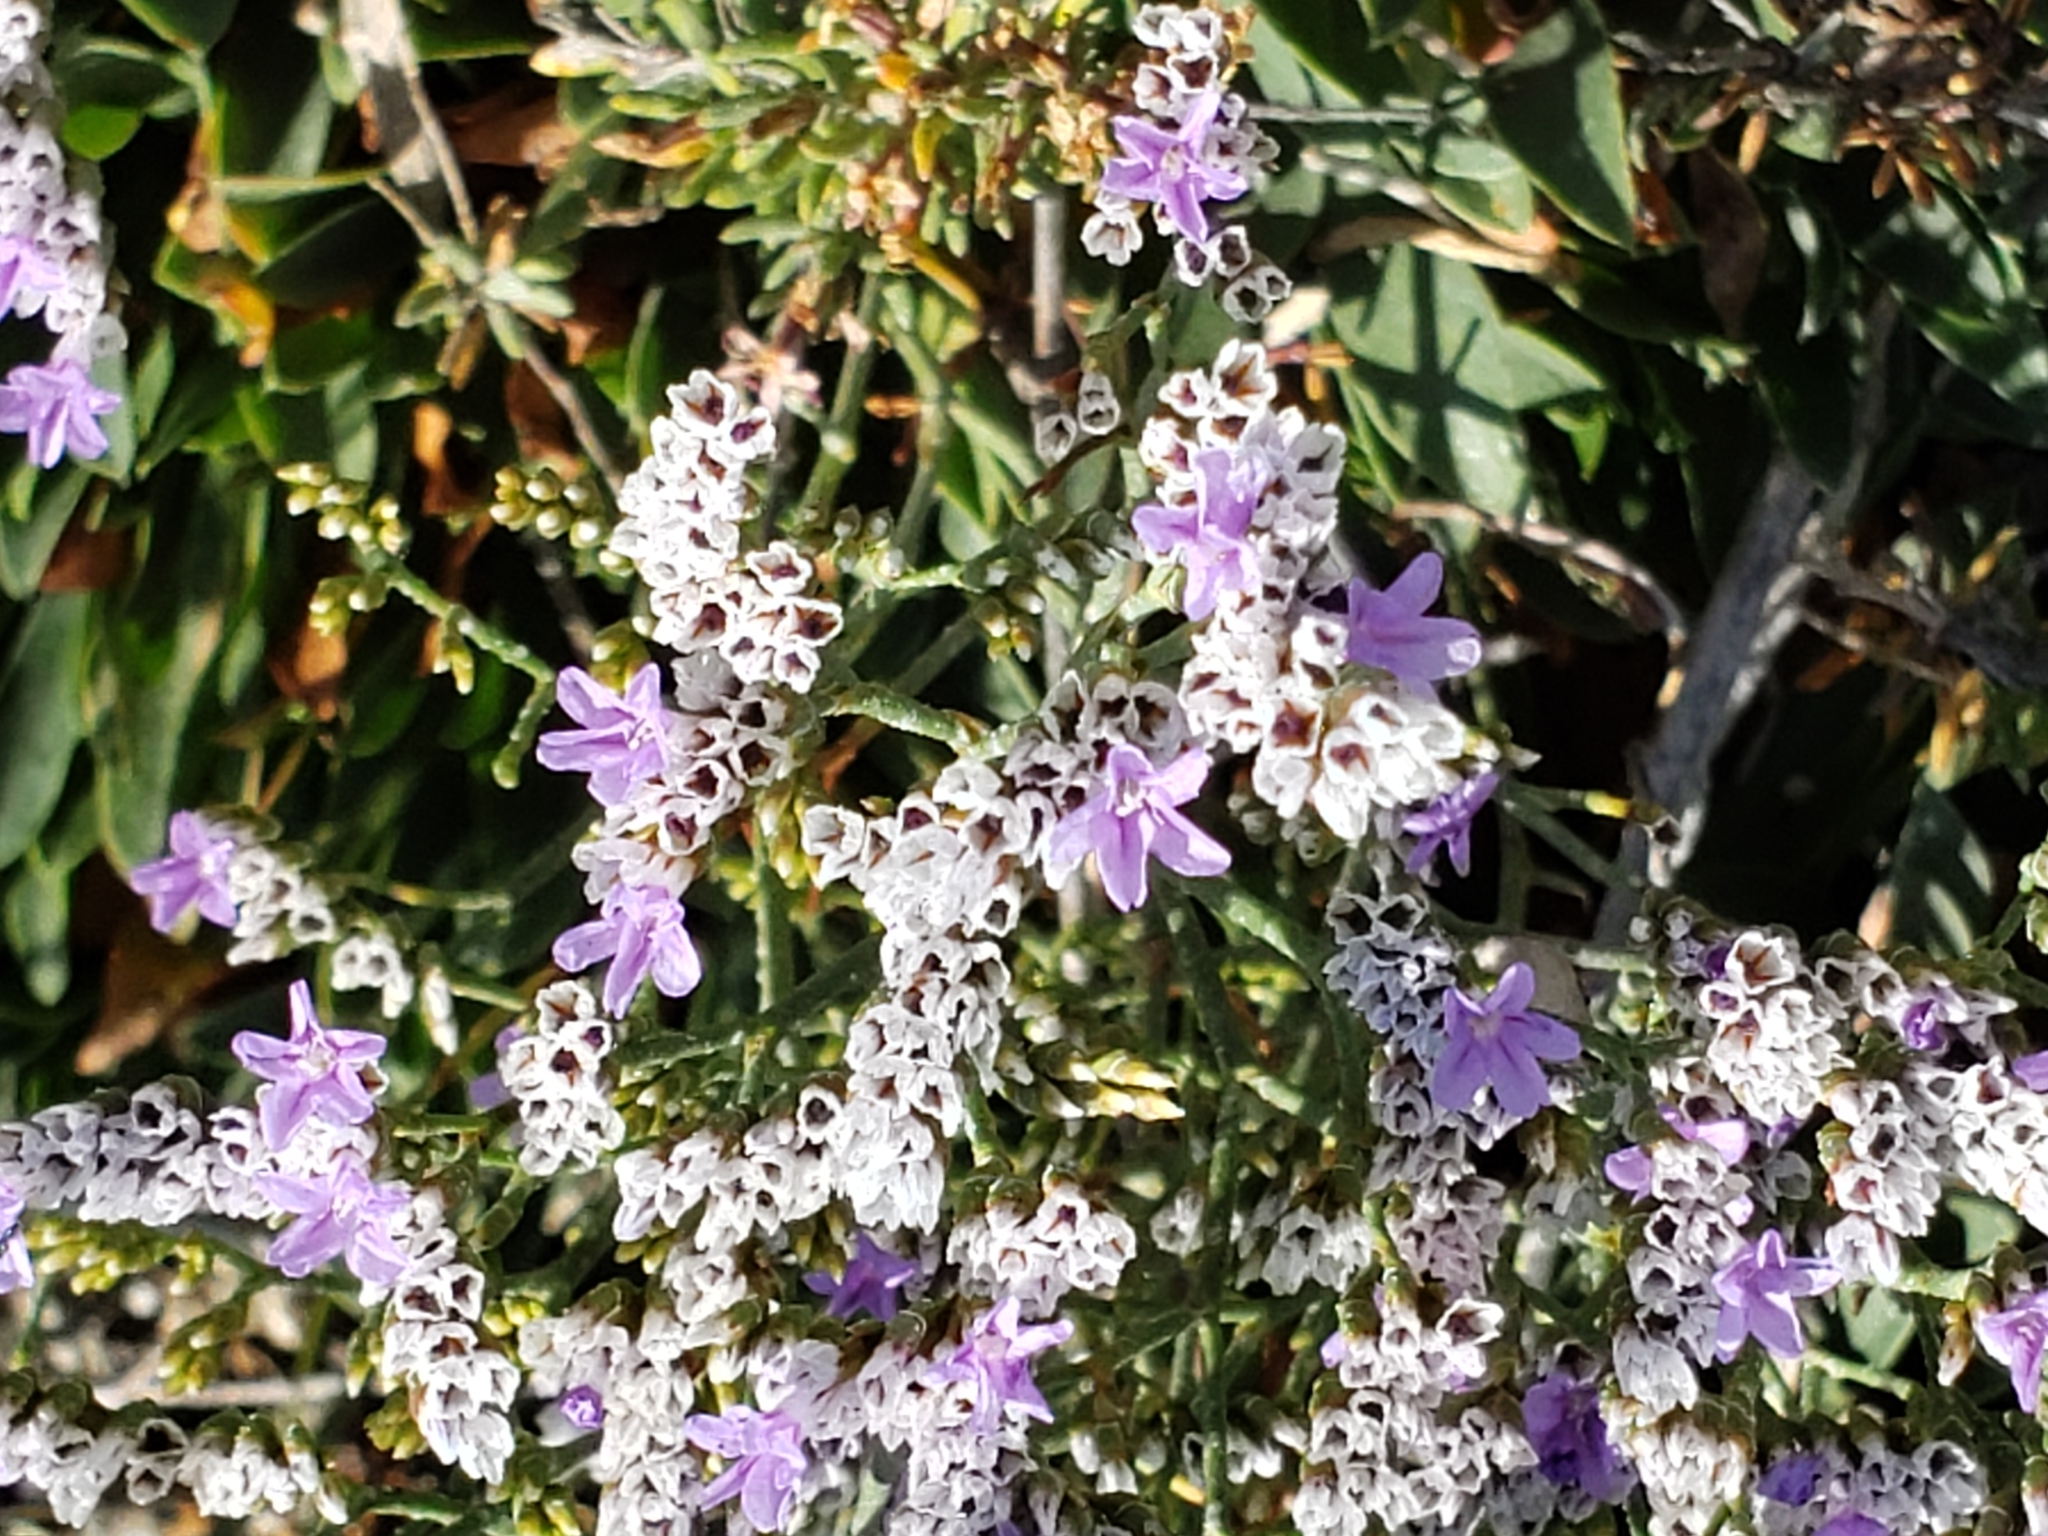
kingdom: Plantae
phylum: Tracheophyta
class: Magnoliopsida
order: Caryophyllales
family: Plumbaginaceae
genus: Limonium
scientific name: Limonium ramosissimum
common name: Algerian sea lavender
